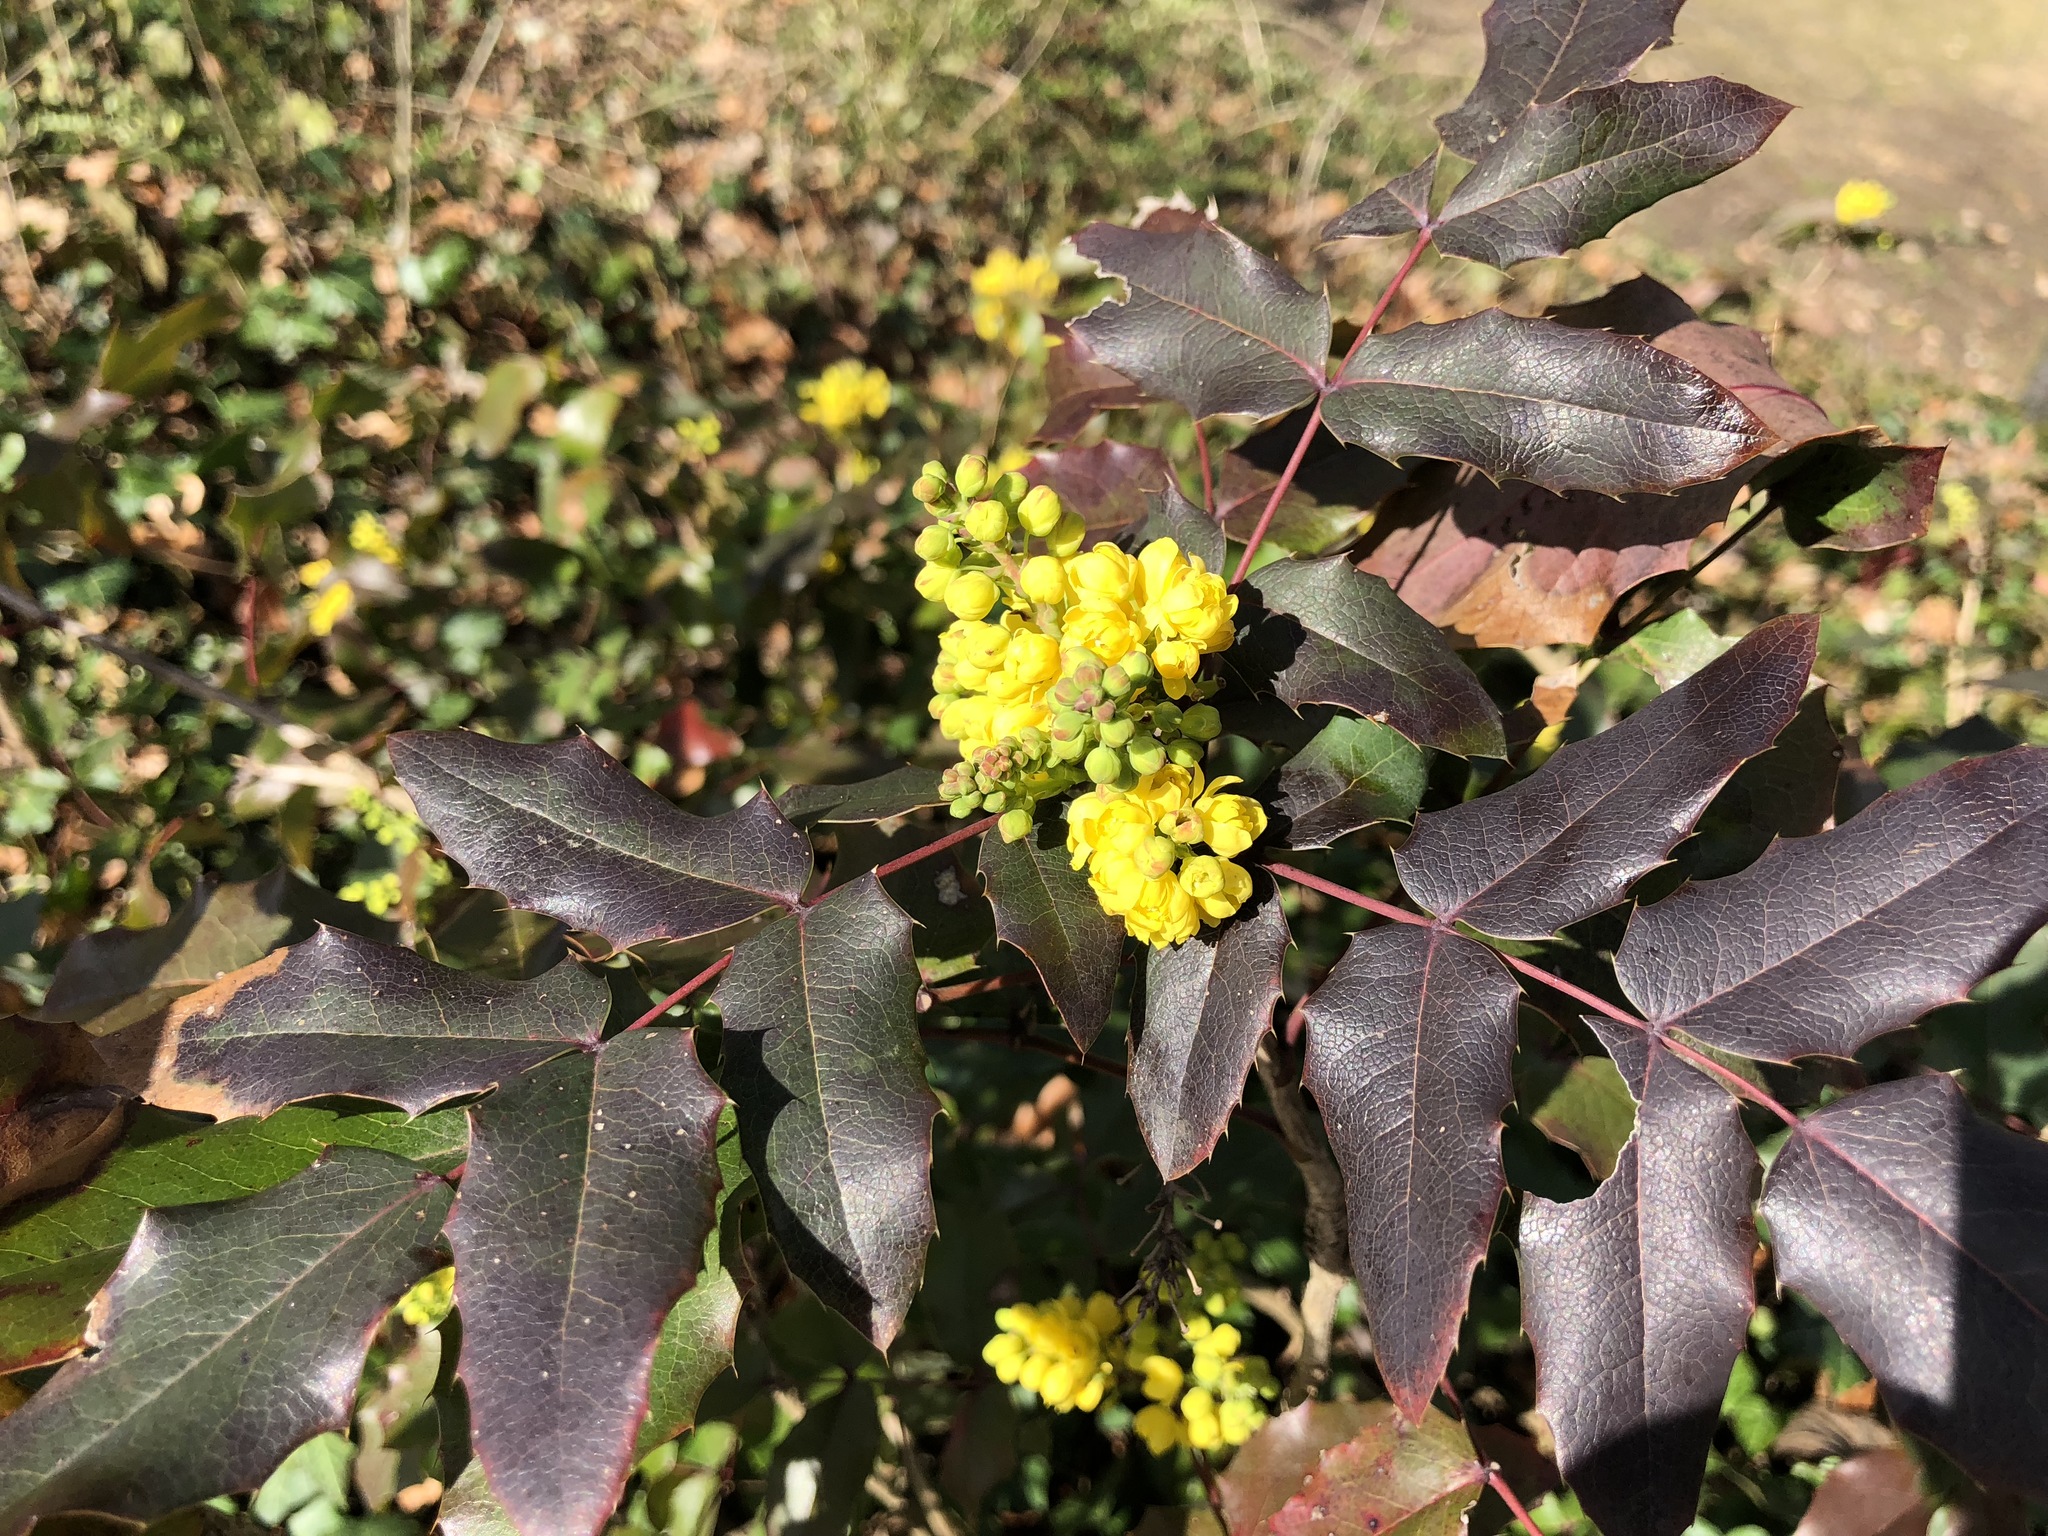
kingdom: Plantae
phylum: Tracheophyta
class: Magnoliopsida
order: Ranunculales
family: Berberidaceae
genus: Mahonia
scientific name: Mahonia aquifolium
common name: Oregon-grape
